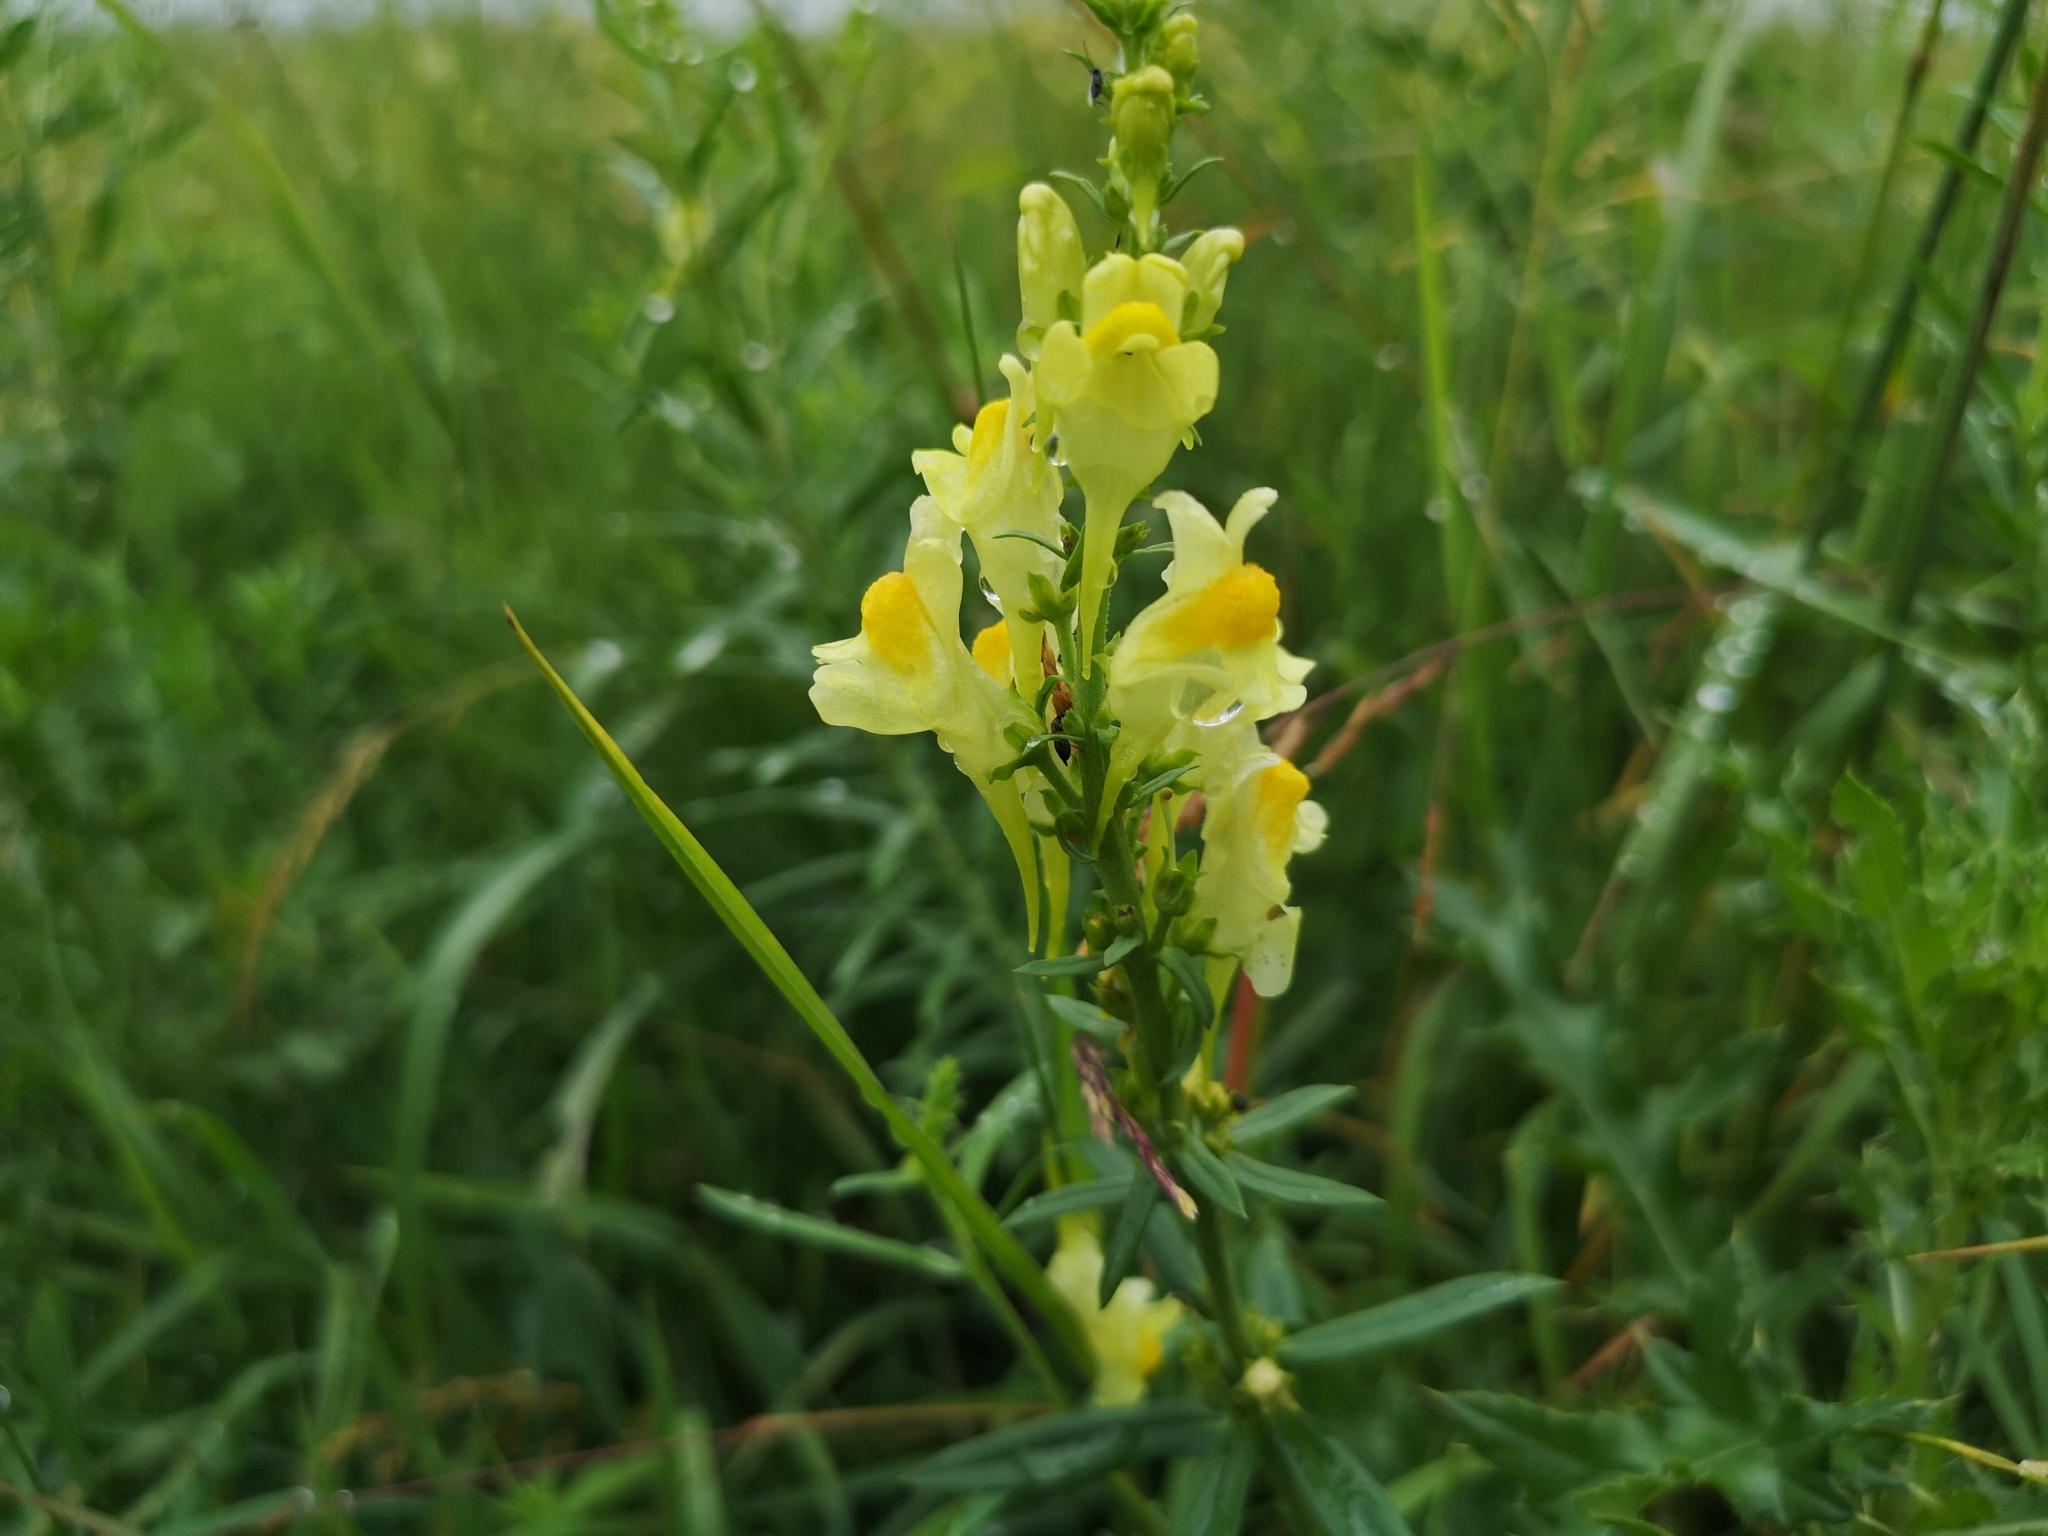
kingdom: Plantae
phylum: Tracheophyta
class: Magnoliopsida
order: Lamiales
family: Plantaginaceae
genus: Linaria
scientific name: Linaria vulgaris
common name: Butter and eggs
